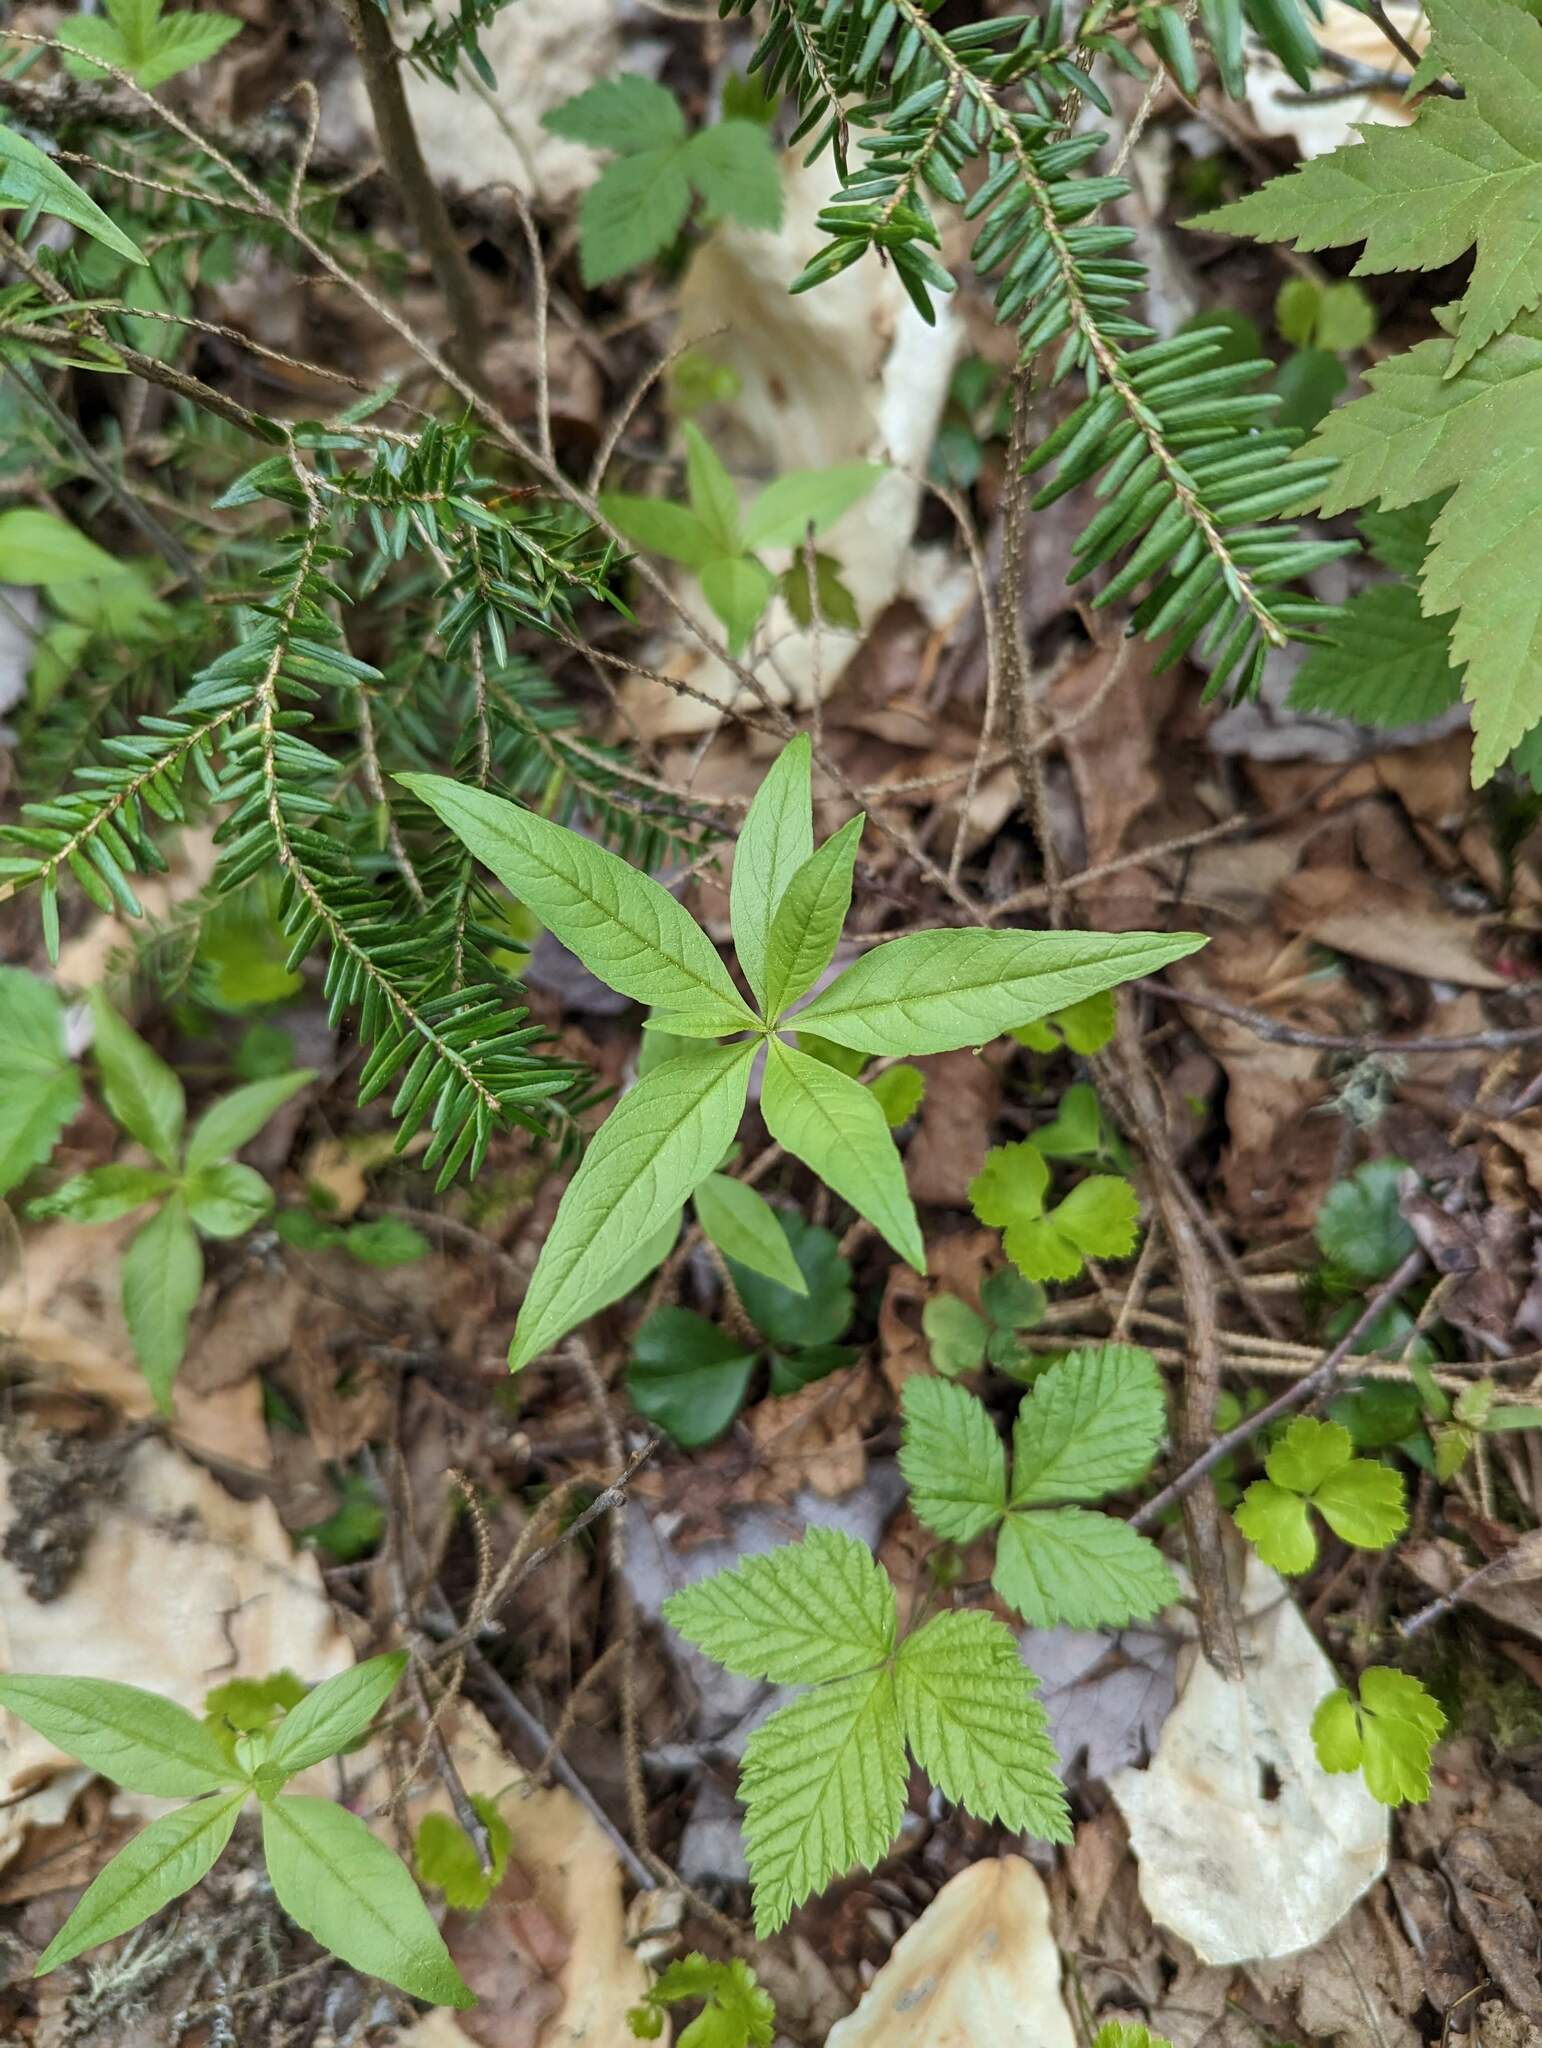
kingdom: Plantae
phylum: Tracheophyta
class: Magnoliopsida
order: Ericales
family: Primulaceae
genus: Lysimachia
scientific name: Lysimachia borealis
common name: American starflower
